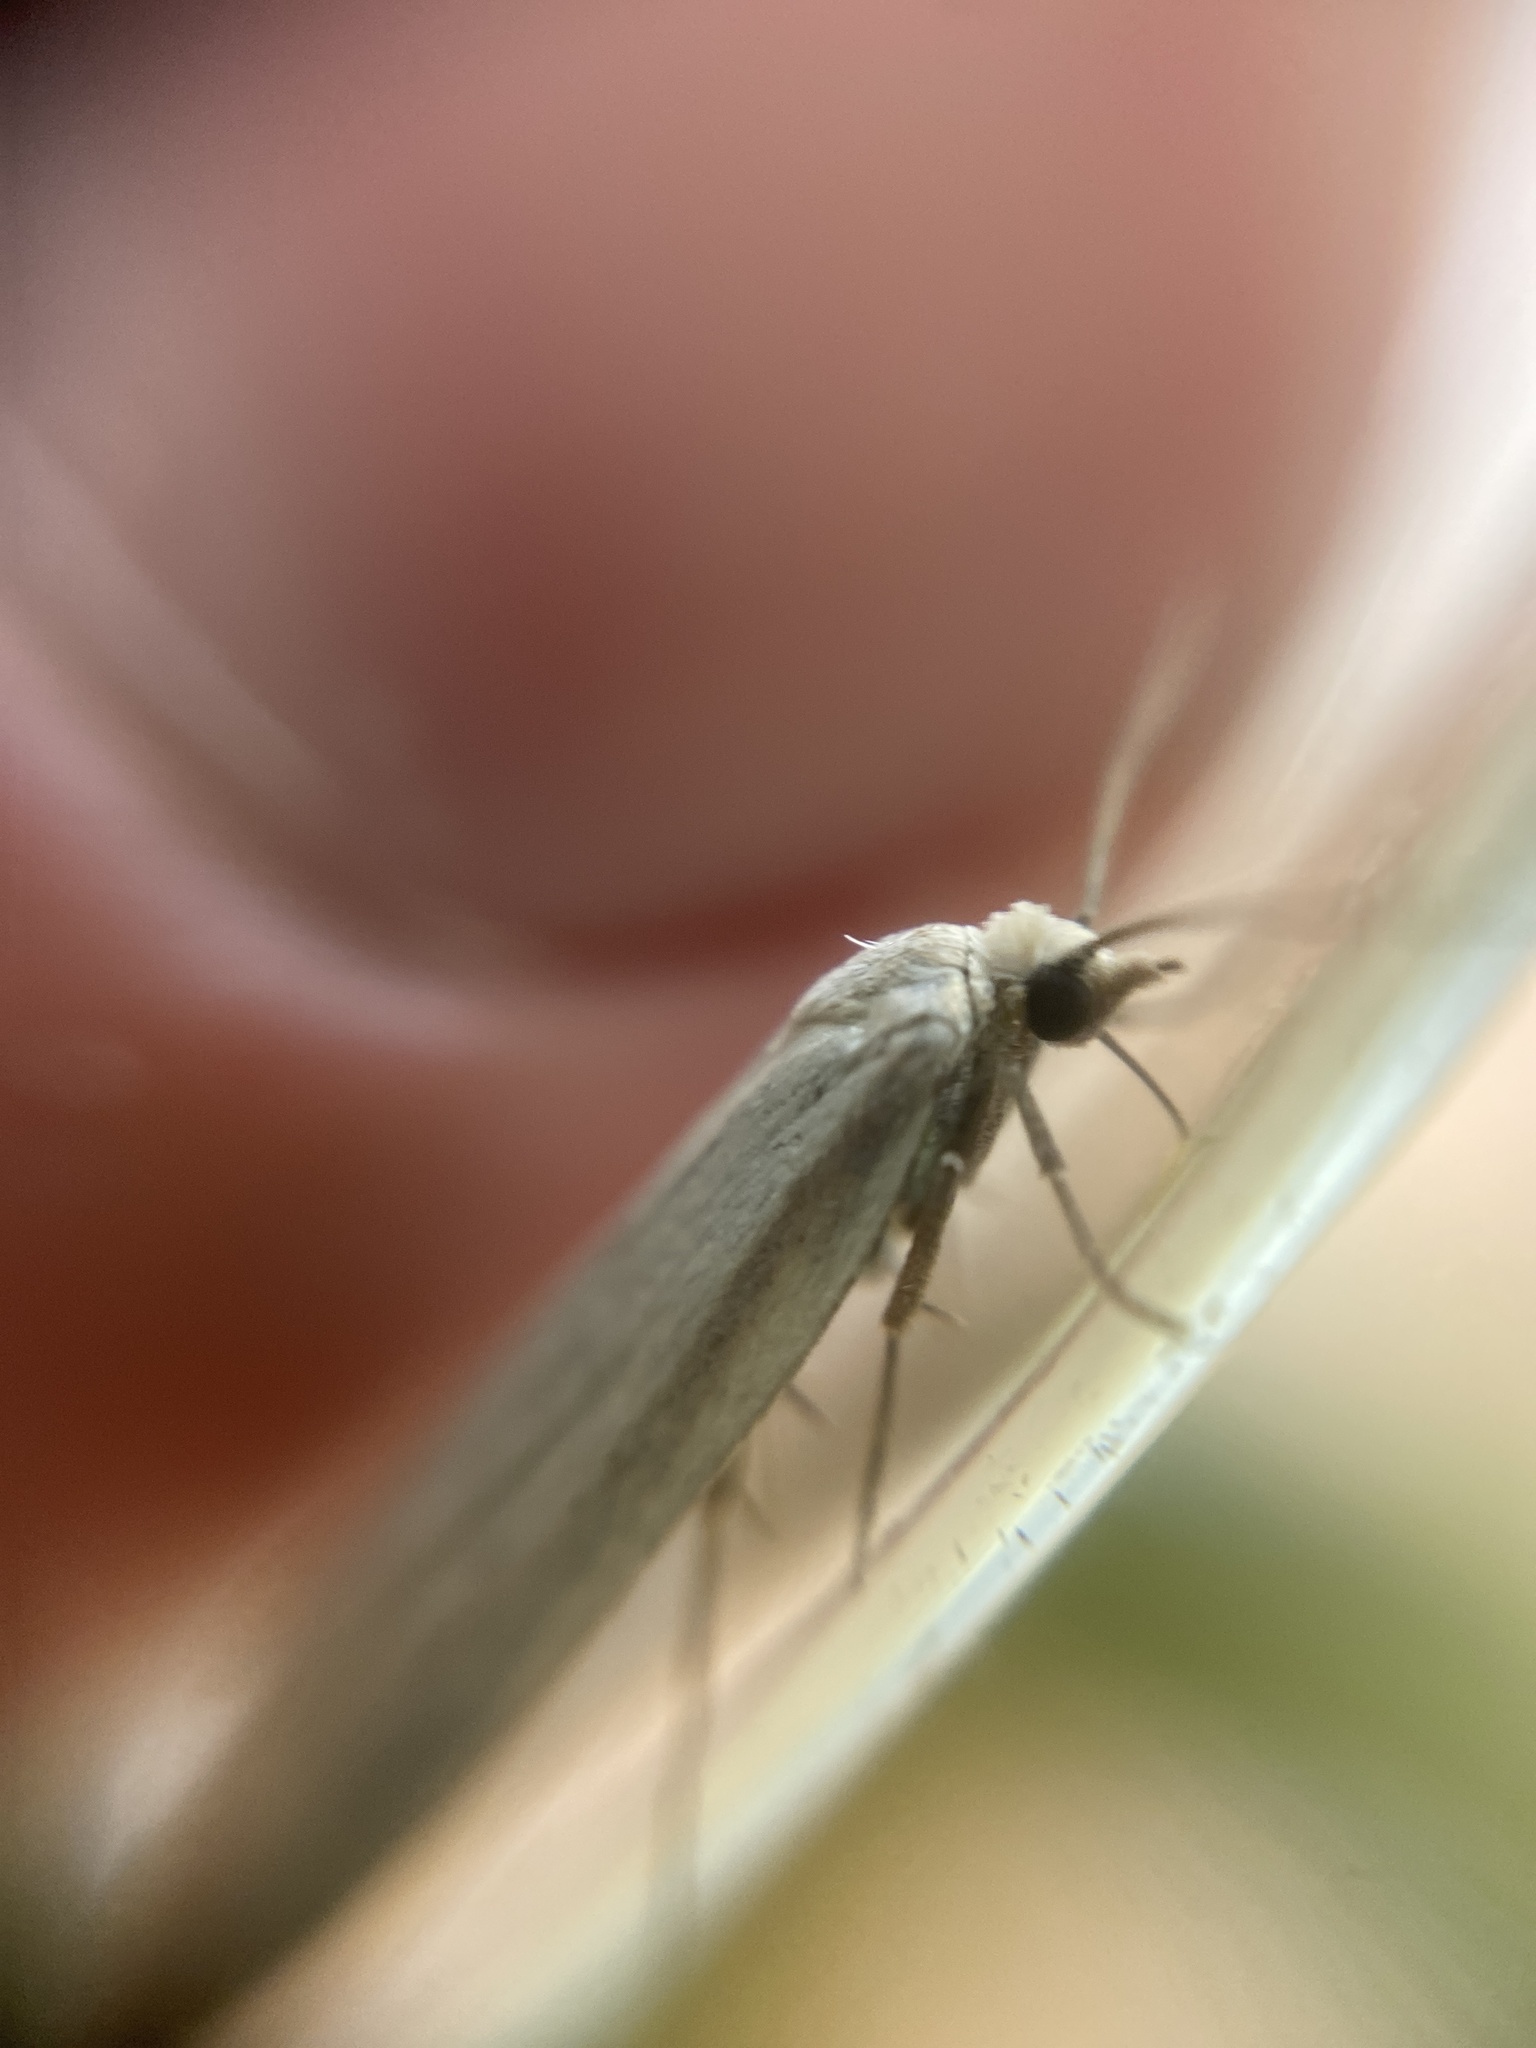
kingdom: Animalia
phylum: Arthropoda
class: Insecta
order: Lepidoptera
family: Tortricidae
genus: Eana
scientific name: Eana argentana
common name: Silver shade
